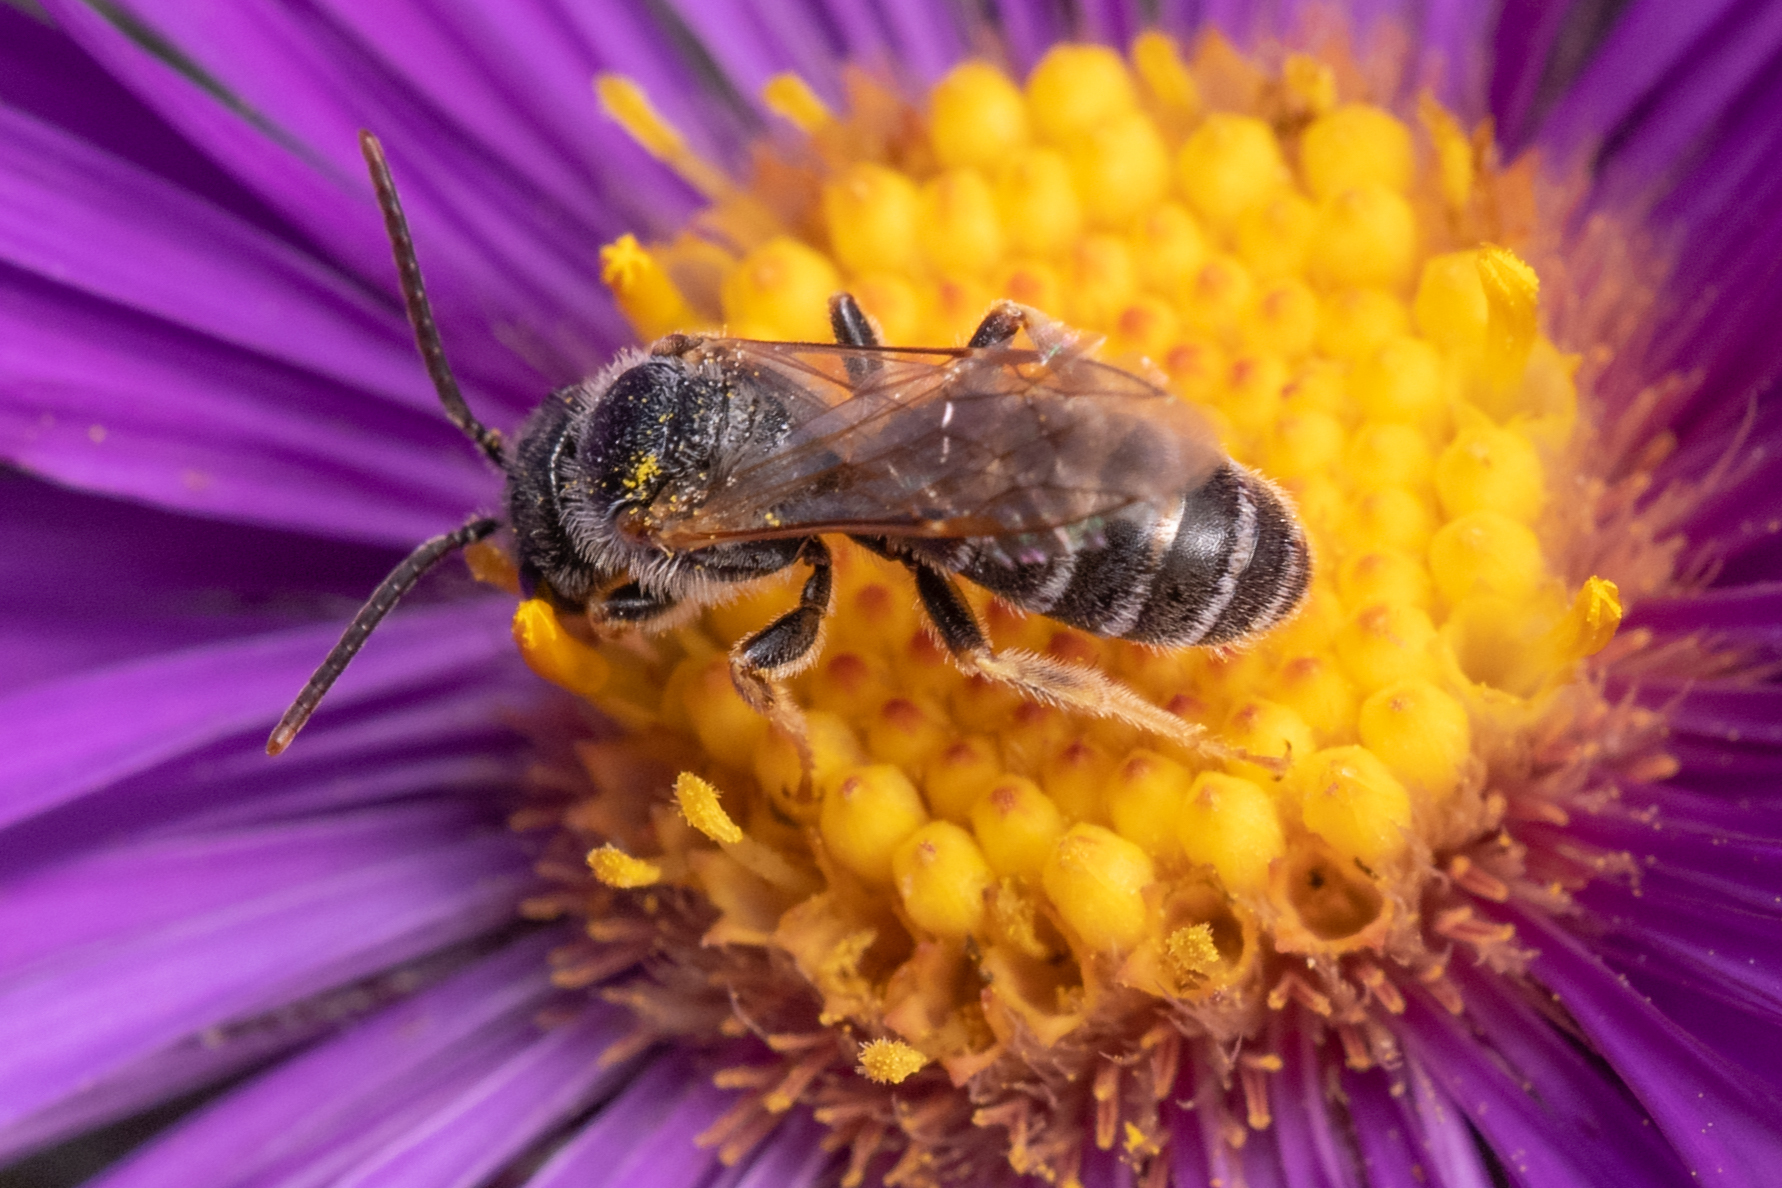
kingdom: Animalia
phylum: Arthropoda
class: Insecta
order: Hymenoptera
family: Halictidae
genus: Halictus
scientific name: Halictus ligatus
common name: Ligated furrow bee
